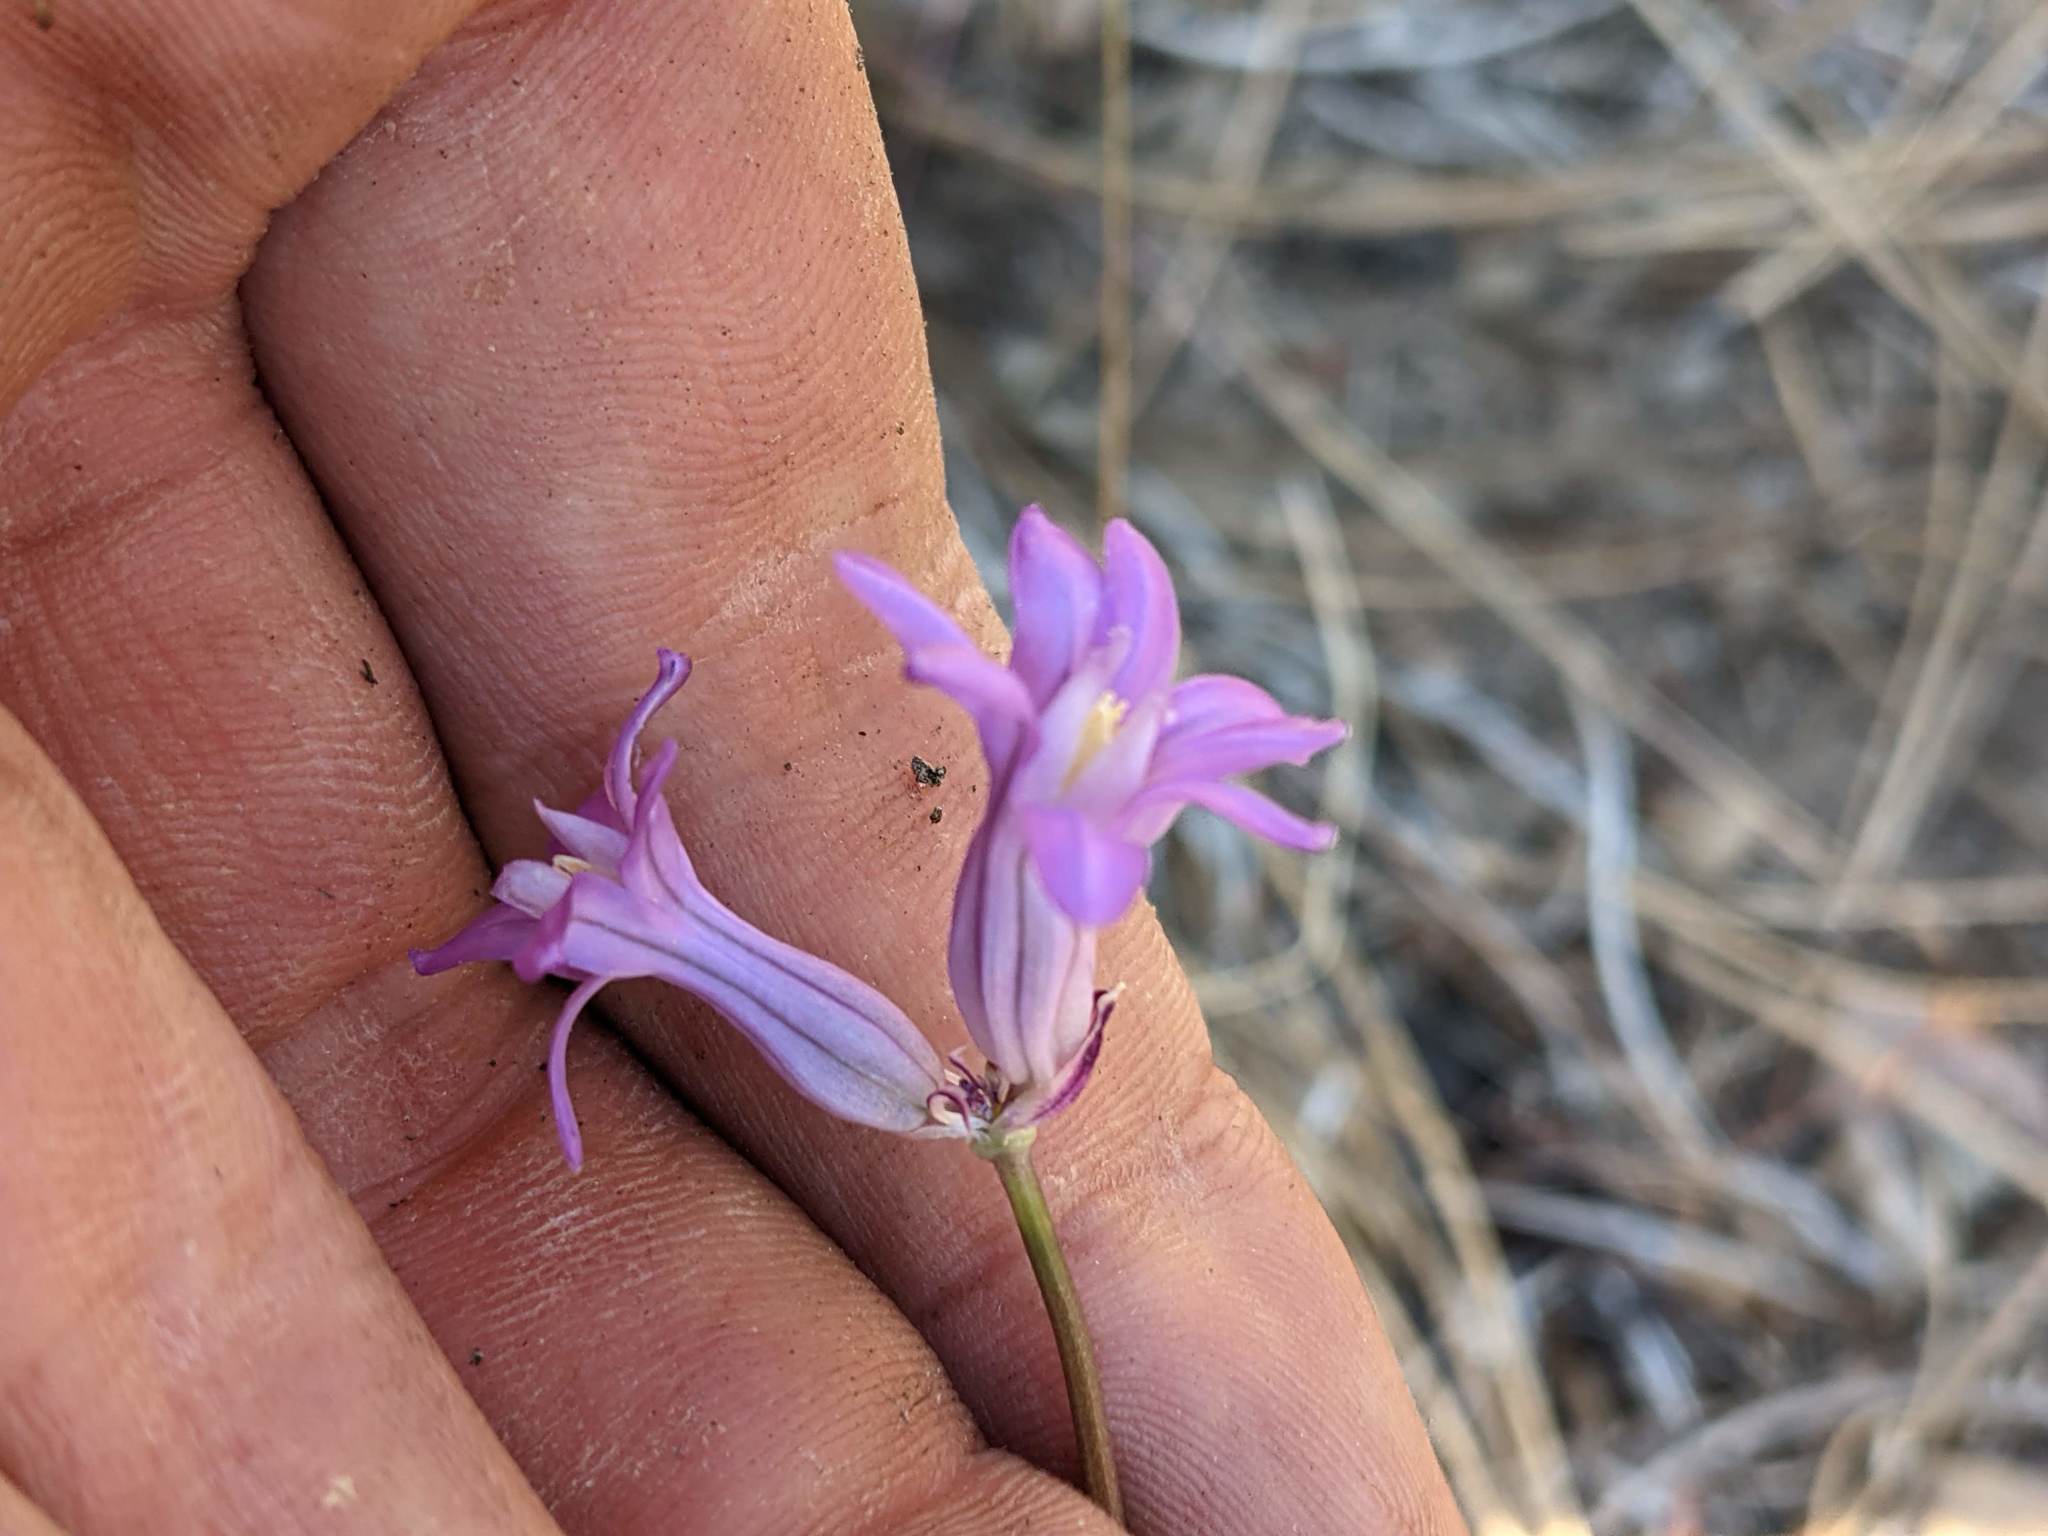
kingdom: Plantae
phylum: Tracheophyta
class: Liliopsida
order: Asparagales
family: Asparagaceae
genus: Dichelostemma
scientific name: Dichelostemma multiflorum
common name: Round-tooth ookow
